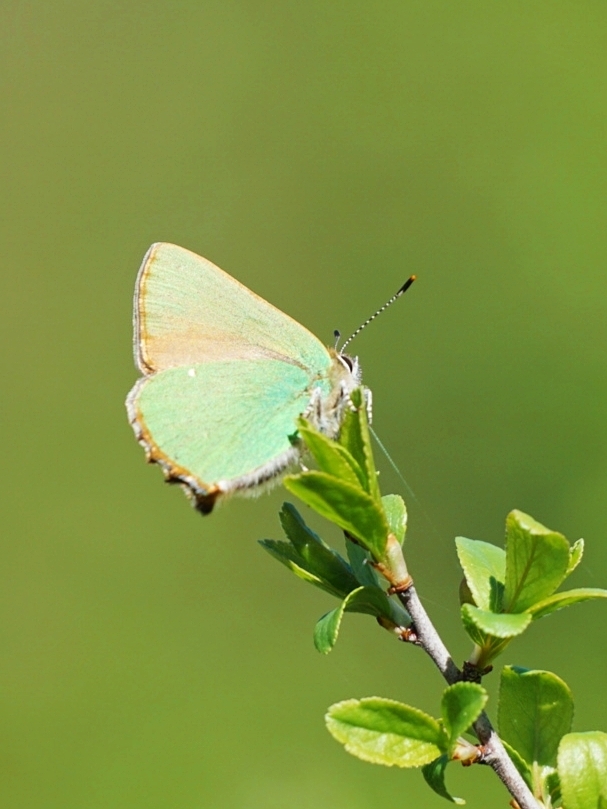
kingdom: Animalia
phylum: Arthropoda
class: Insecta
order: Lepidoptera
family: Lycaenidae
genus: Callophrys
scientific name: Callophrys rubi
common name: Green hairstreak
